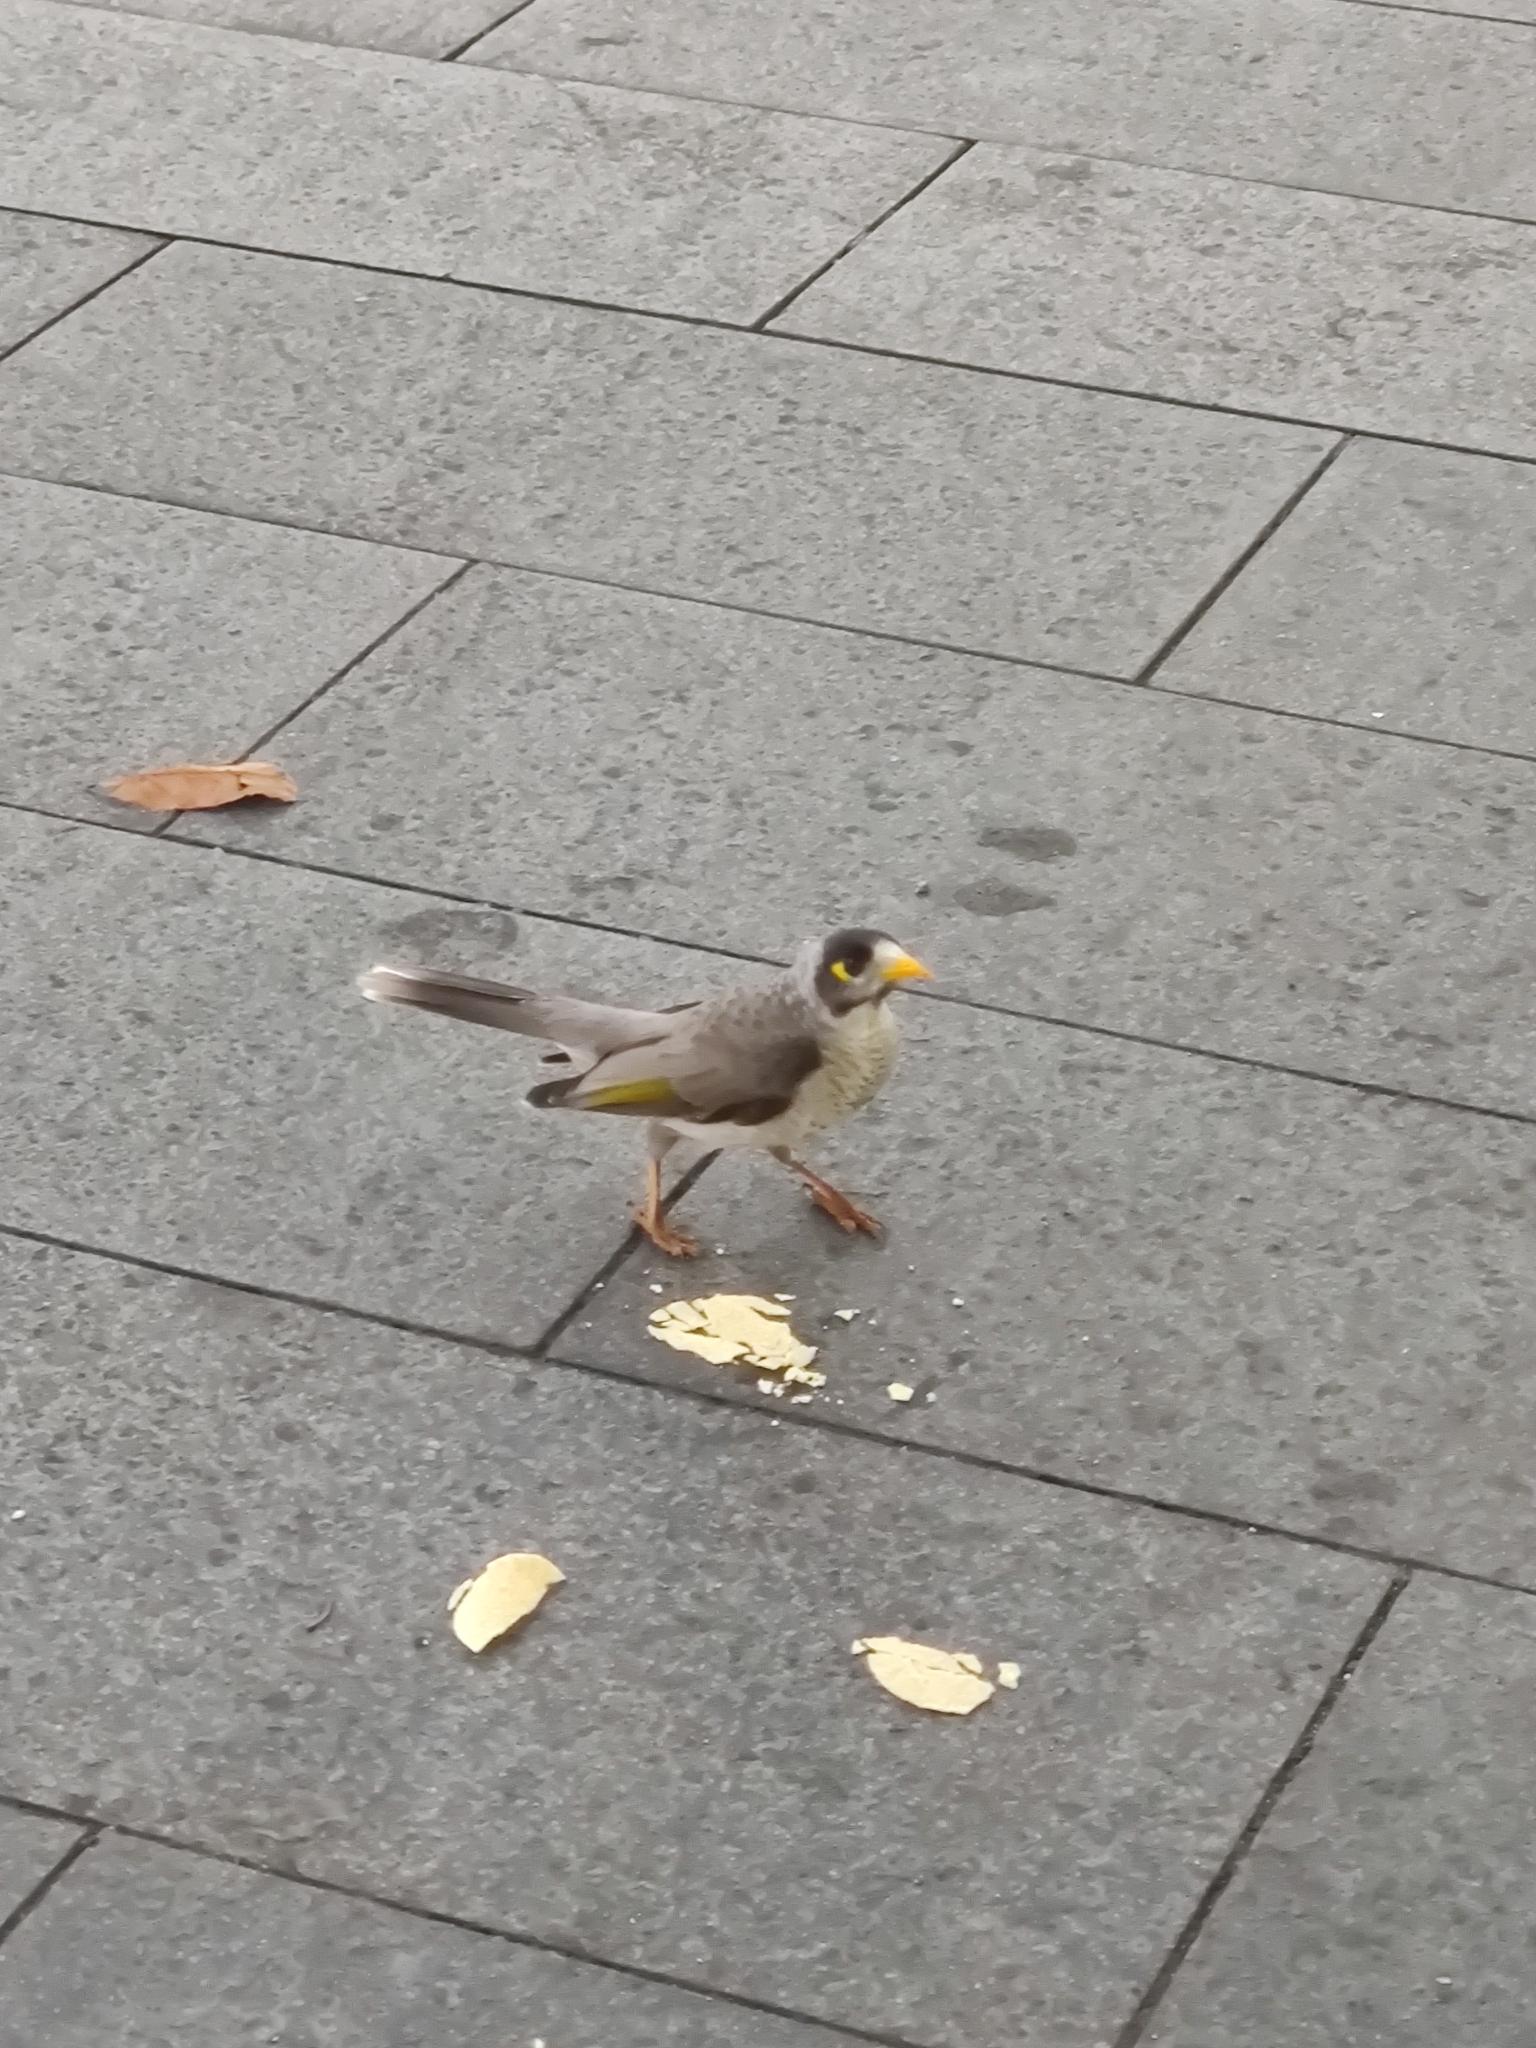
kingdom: Animalia
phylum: Chordata
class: Aves
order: Passeriformes
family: Meliphagidae
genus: Manorina
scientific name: Manorina melanocephala
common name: Noisy miner
